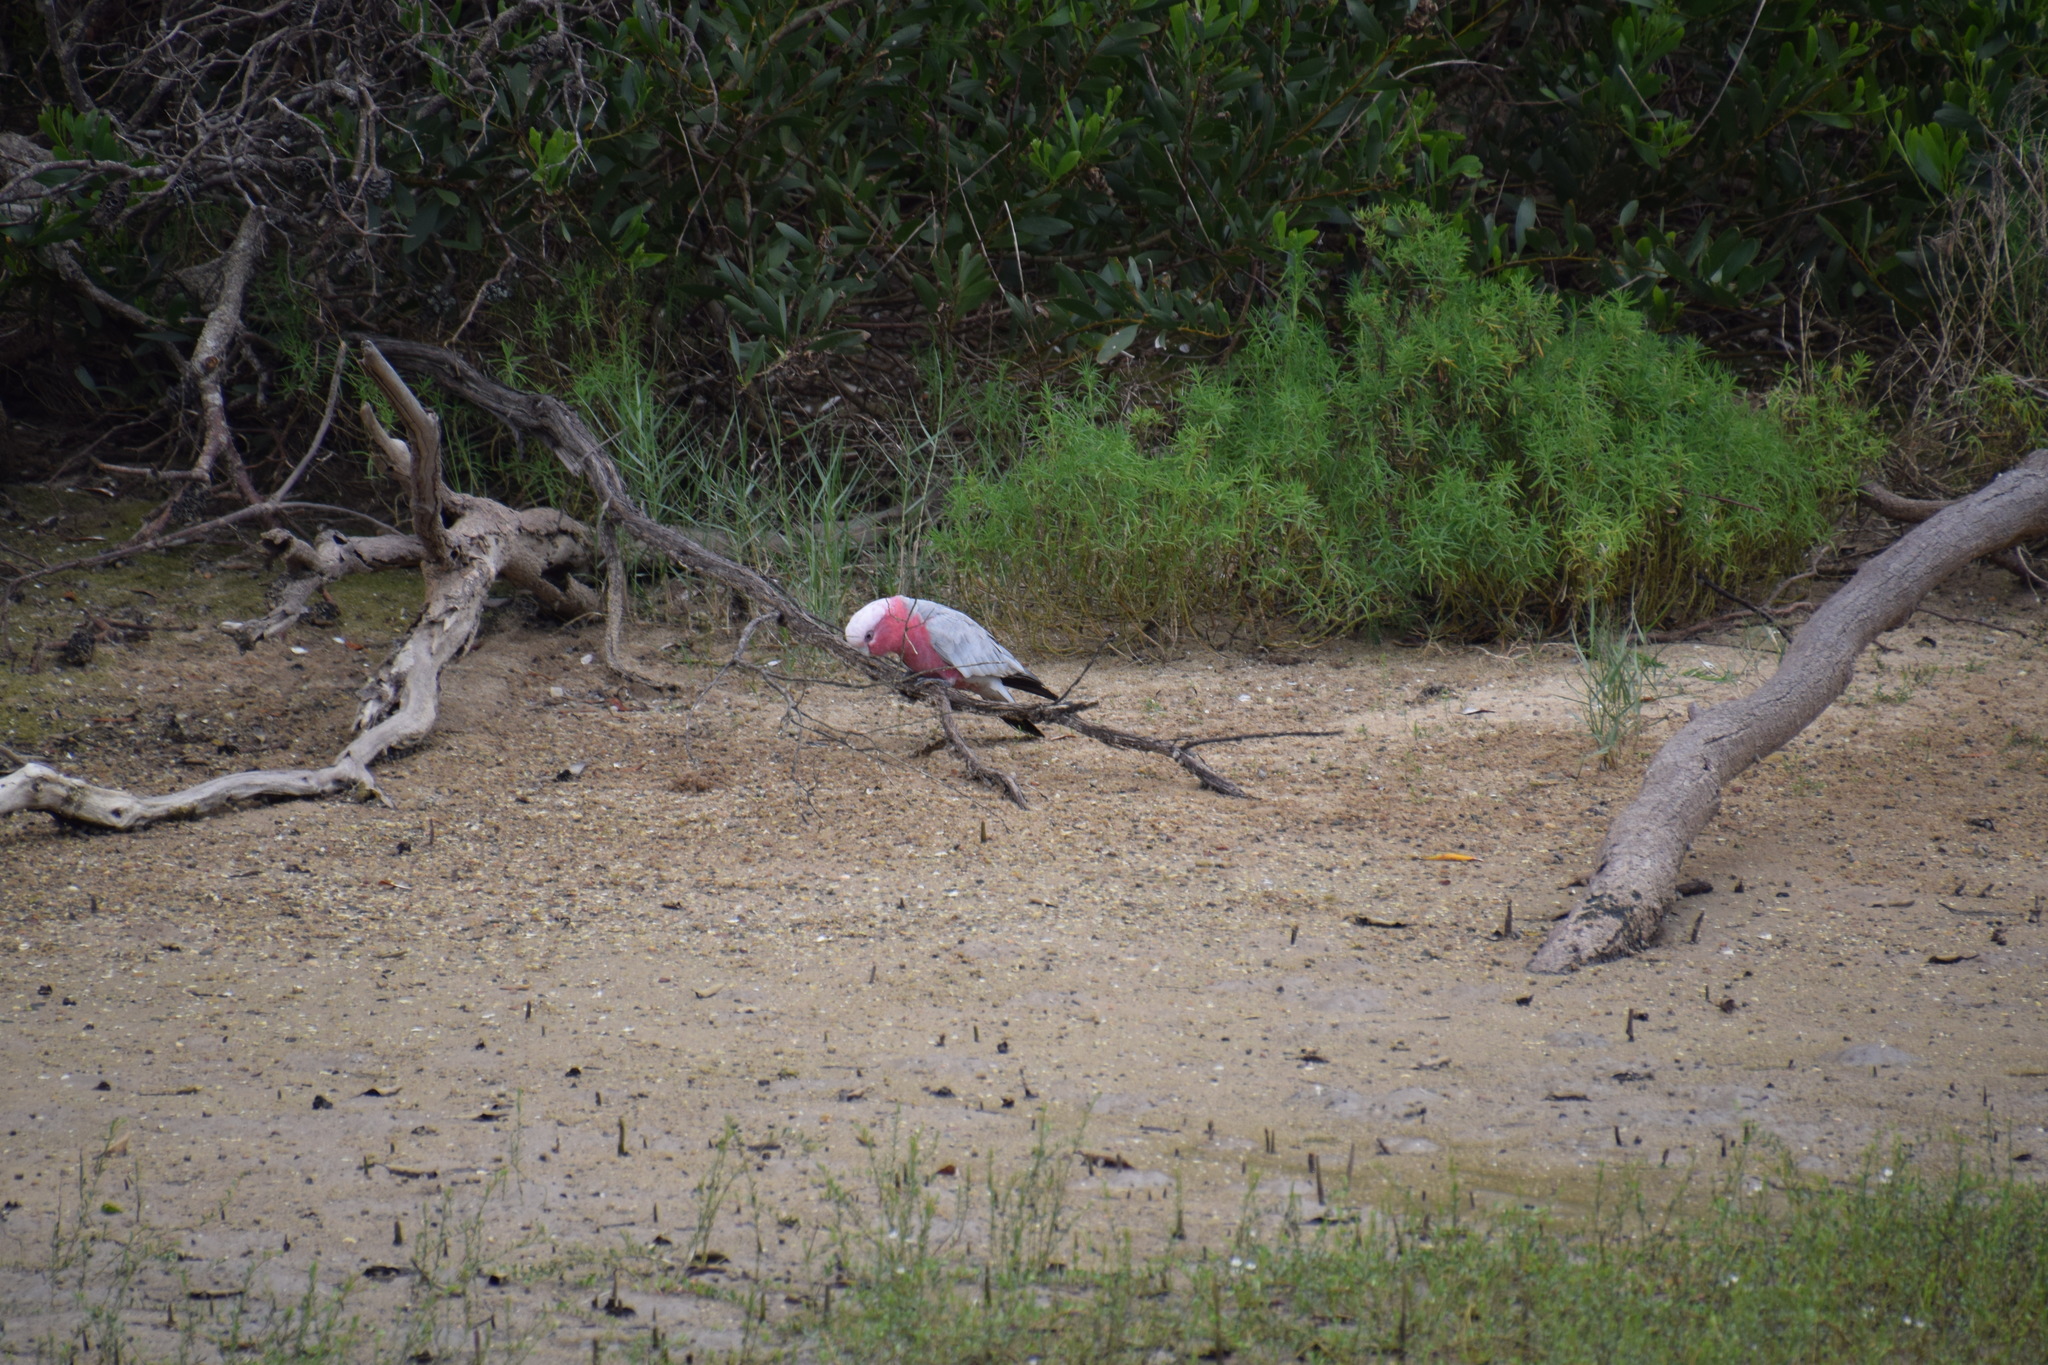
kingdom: Animalia
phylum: Chordata
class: Aves
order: Psittaciformes
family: Psittacidae
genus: Eolophus
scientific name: Eolophus roseicapilla
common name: Galah
